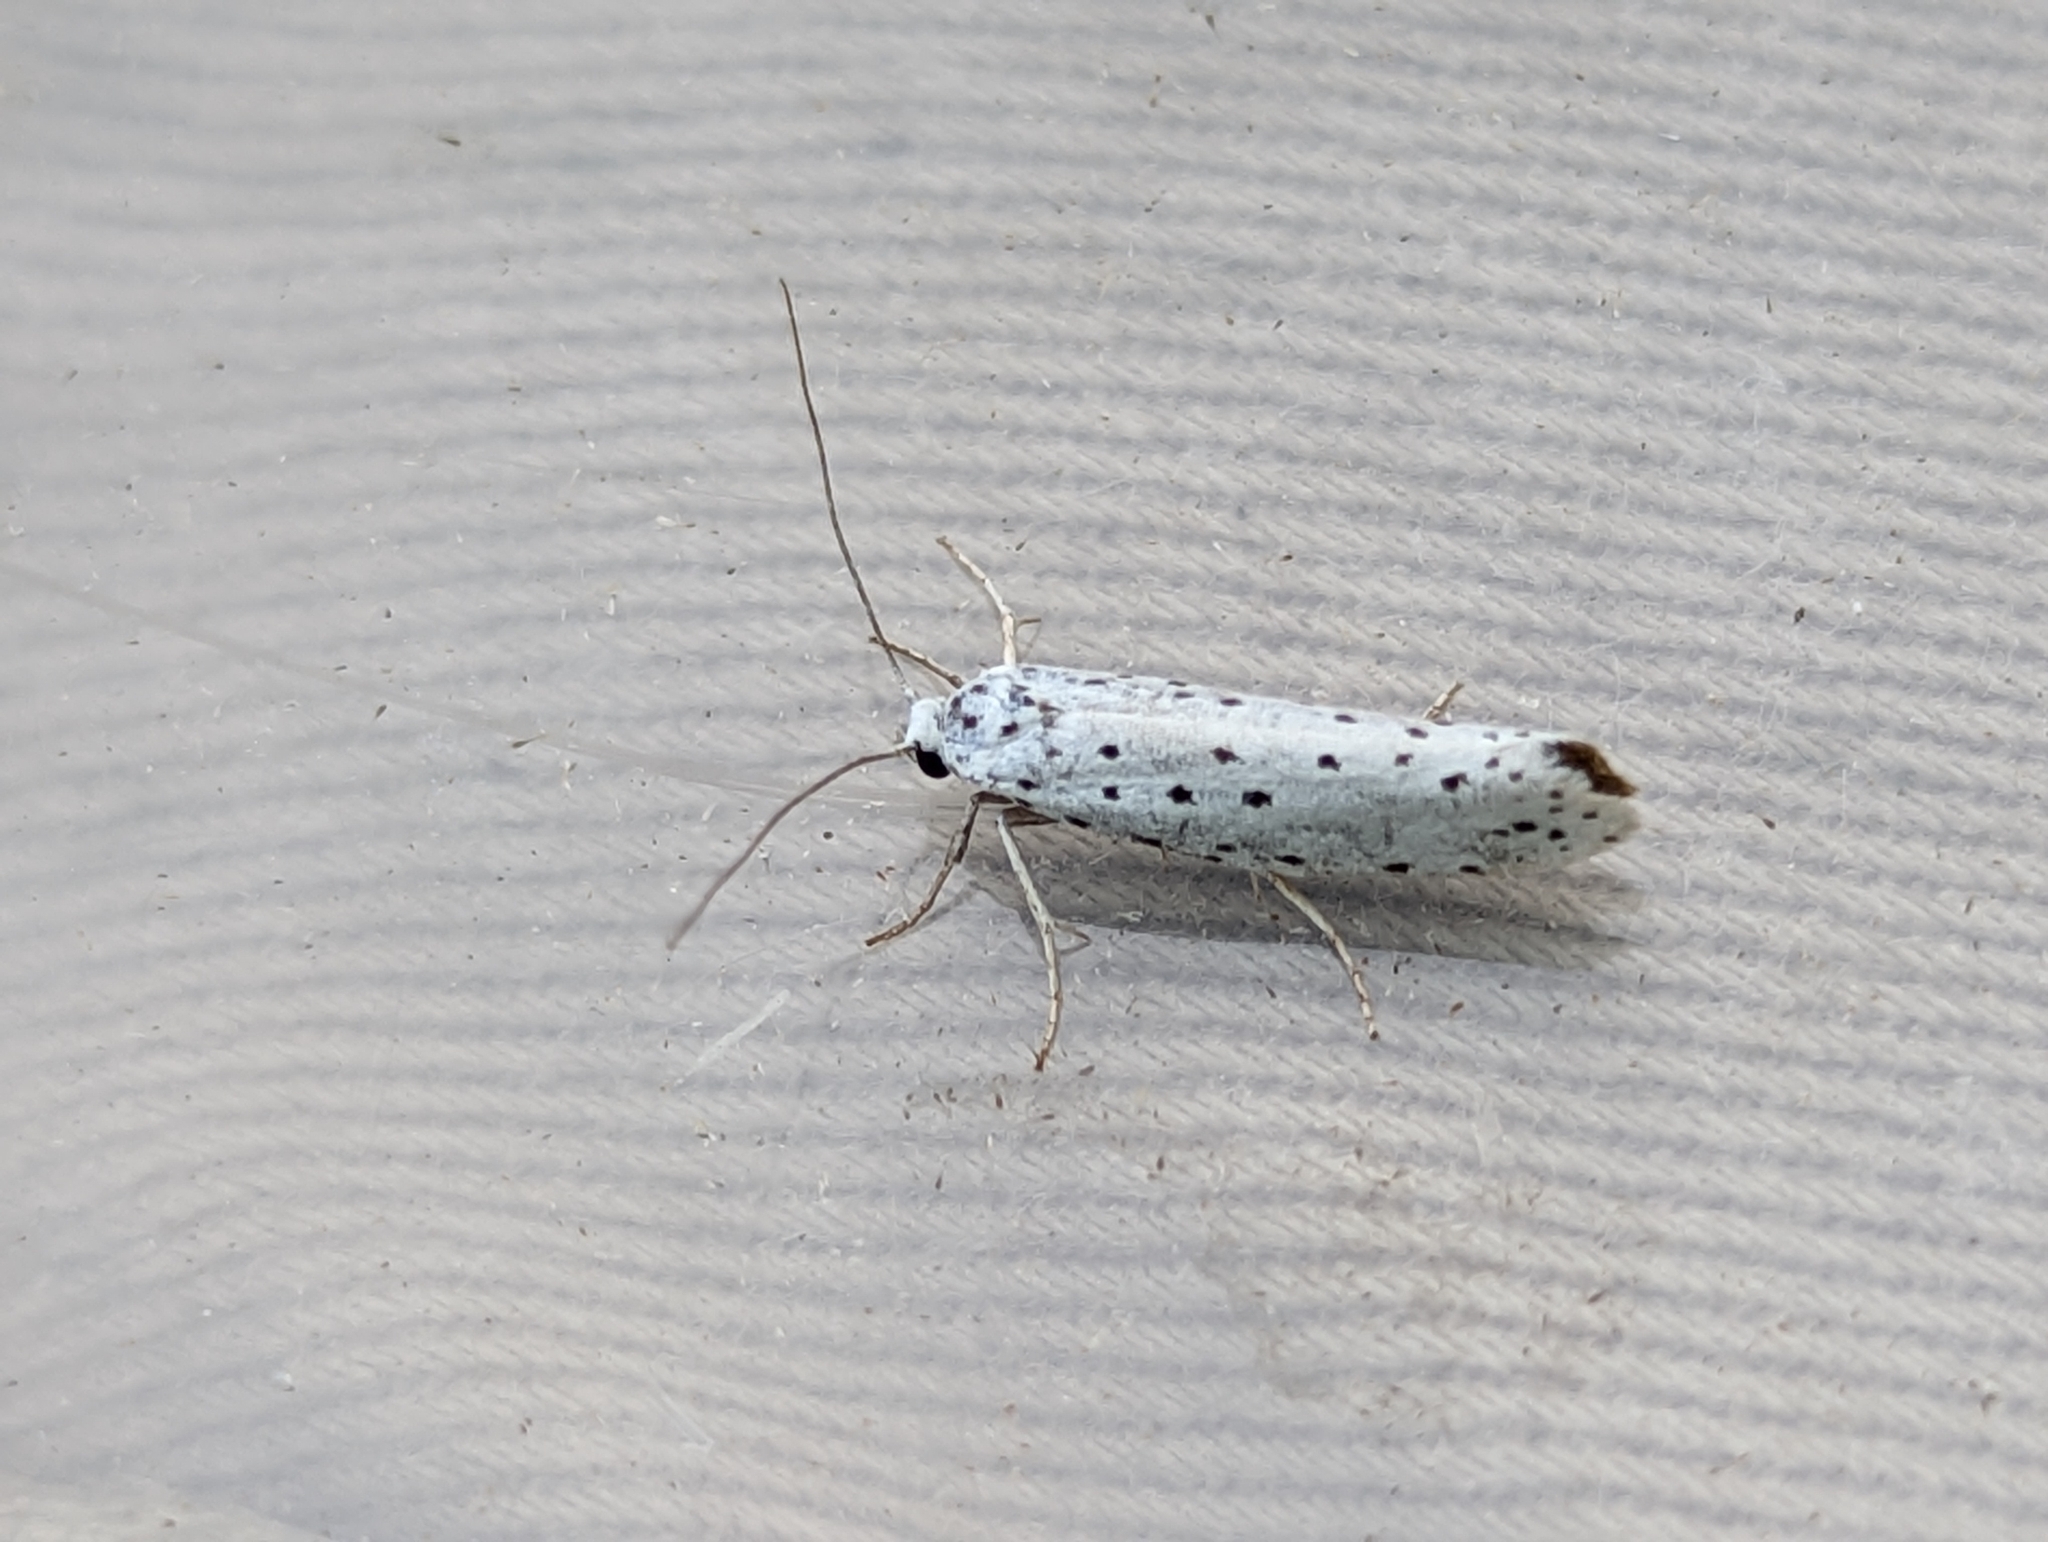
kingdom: Animalia
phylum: Arthropoda
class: Insecta
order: Lepidoptera
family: Yponomeutidae
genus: Yponomeuta
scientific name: Yponomeuta
